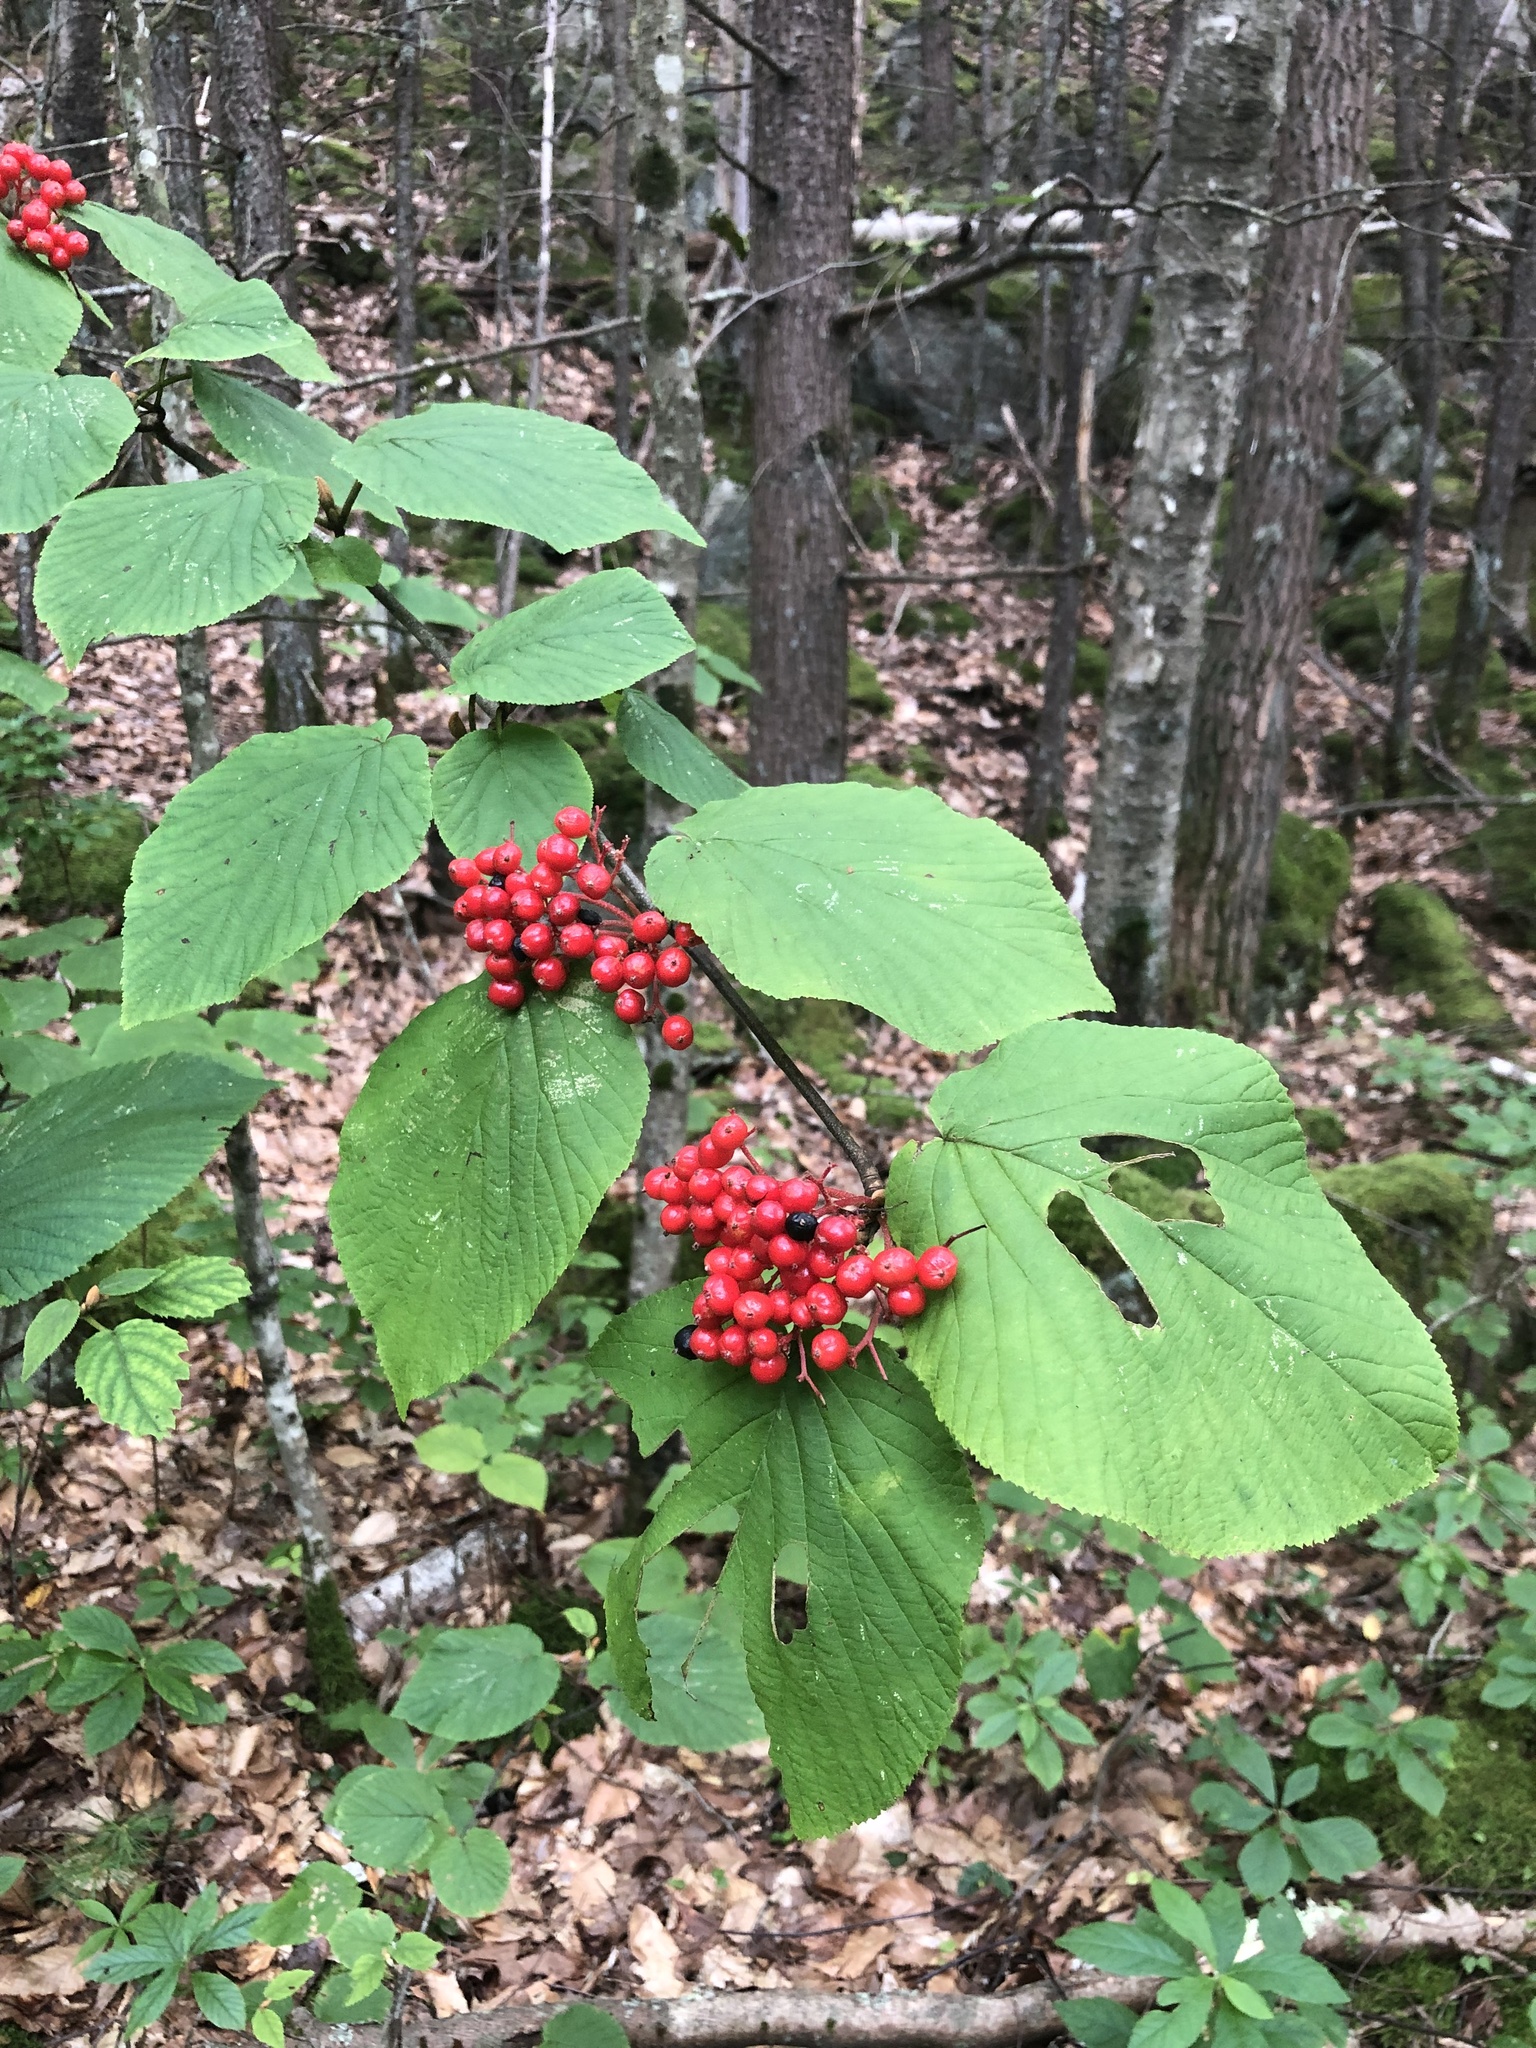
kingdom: Plantae
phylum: Tracheophyta
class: Magnoliopsida
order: Dipsacales
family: Viburnaceae
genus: Viburnum
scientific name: Viburnum lantanoides
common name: Hobblebush
